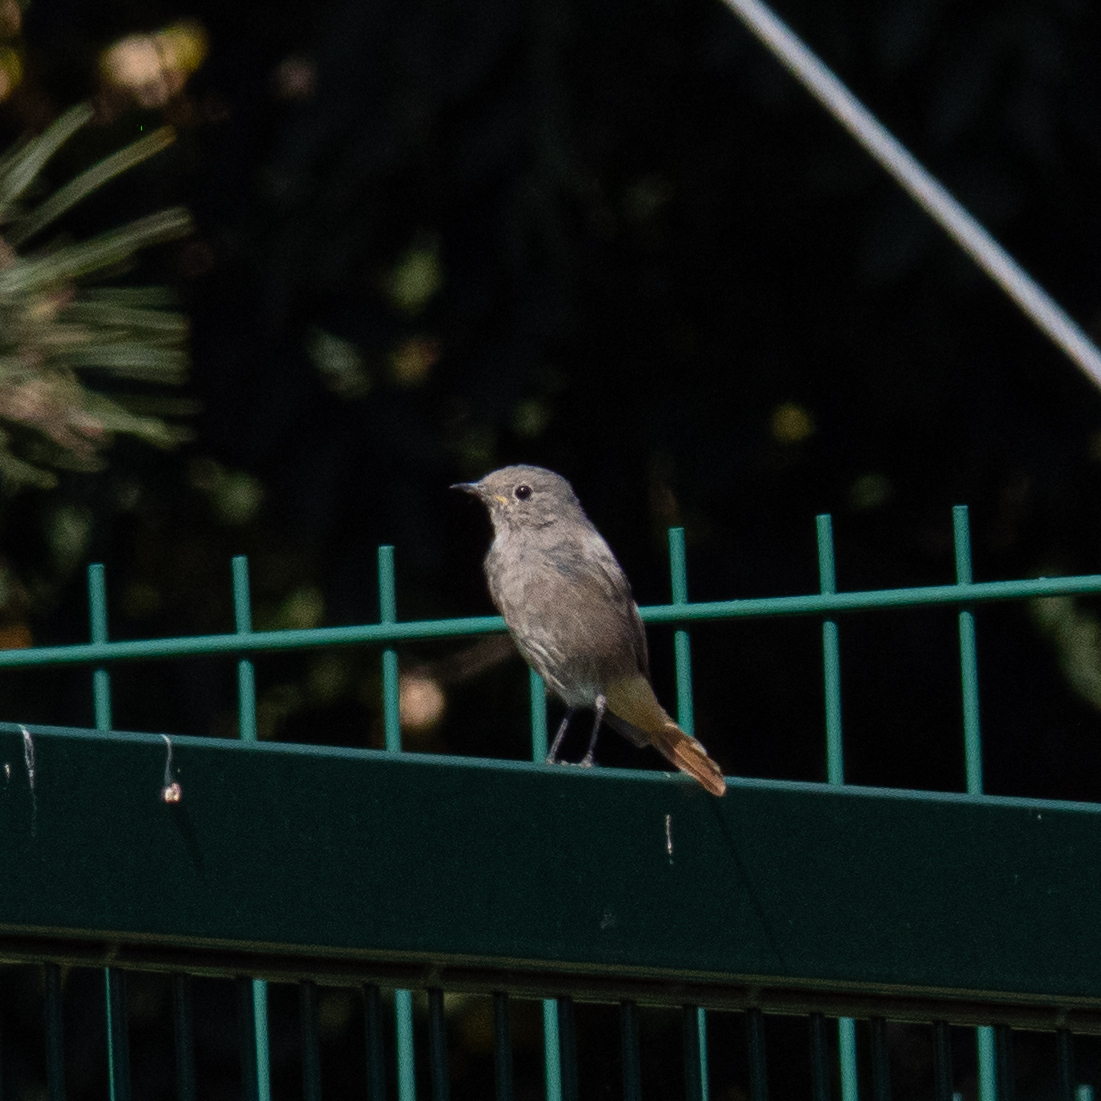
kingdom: Animalia
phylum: Chordata
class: Aves
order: Passeriformes
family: Muscicapidae
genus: Phoenicurus
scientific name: Phoenicurus ochruros
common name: Black redstart
